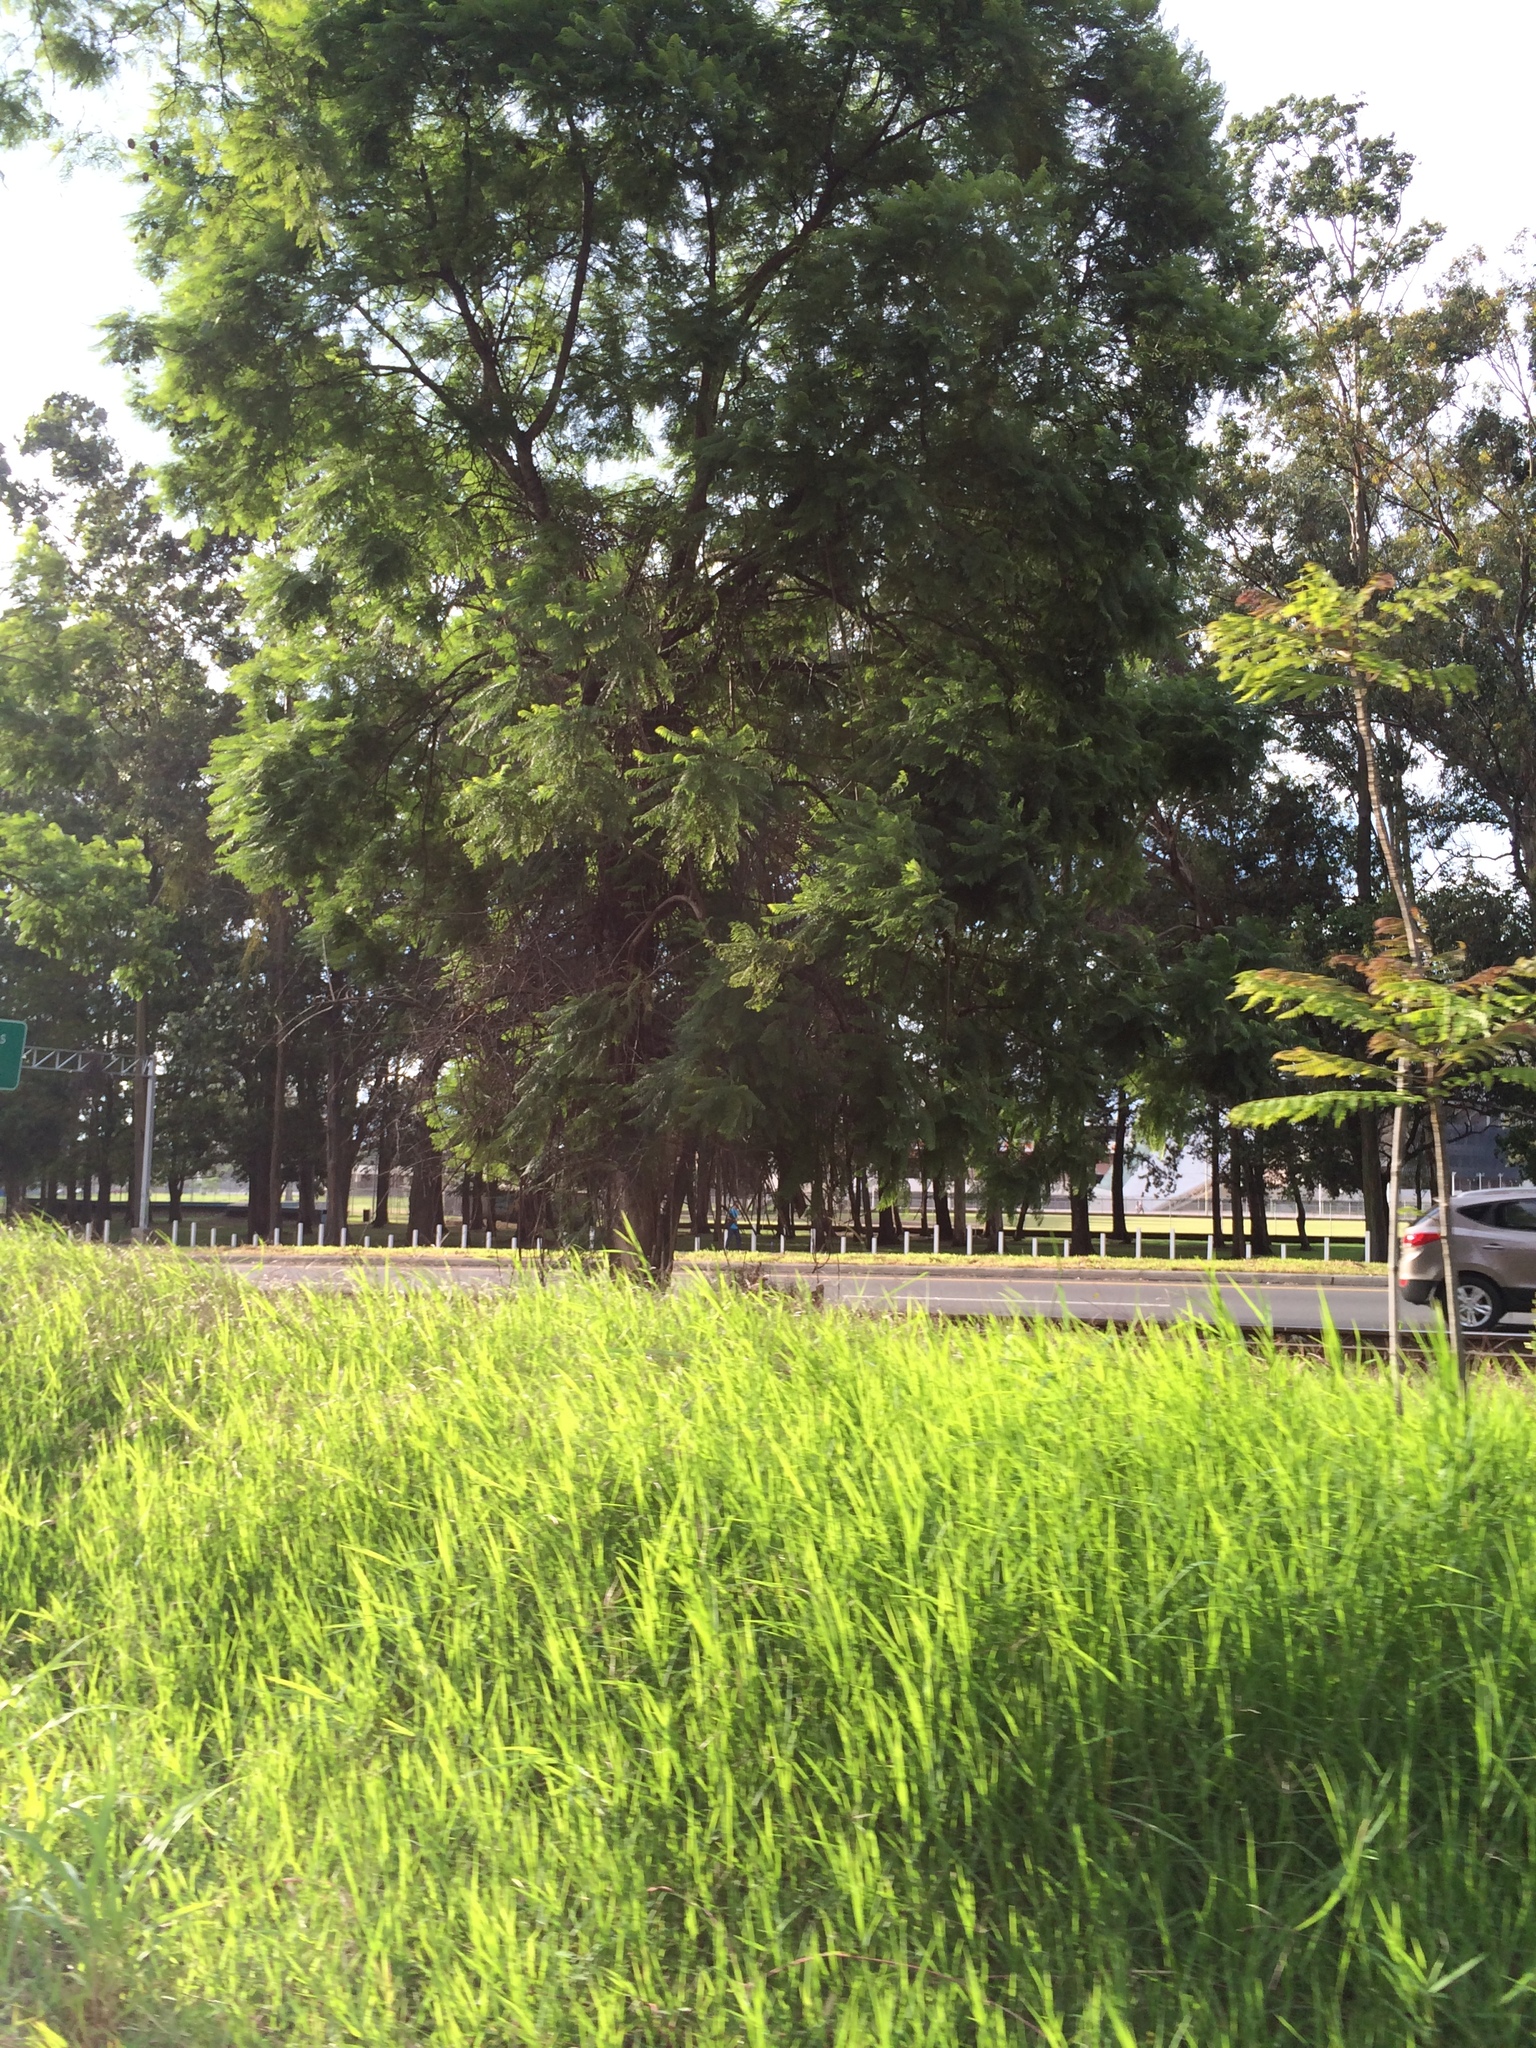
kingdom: Plantae
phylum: Tracheophyta
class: Magnoliopsida
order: Lamiales
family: Bignoniaceae
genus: Jacaranda
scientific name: Jacaranda mimosifolia
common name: Black poui
